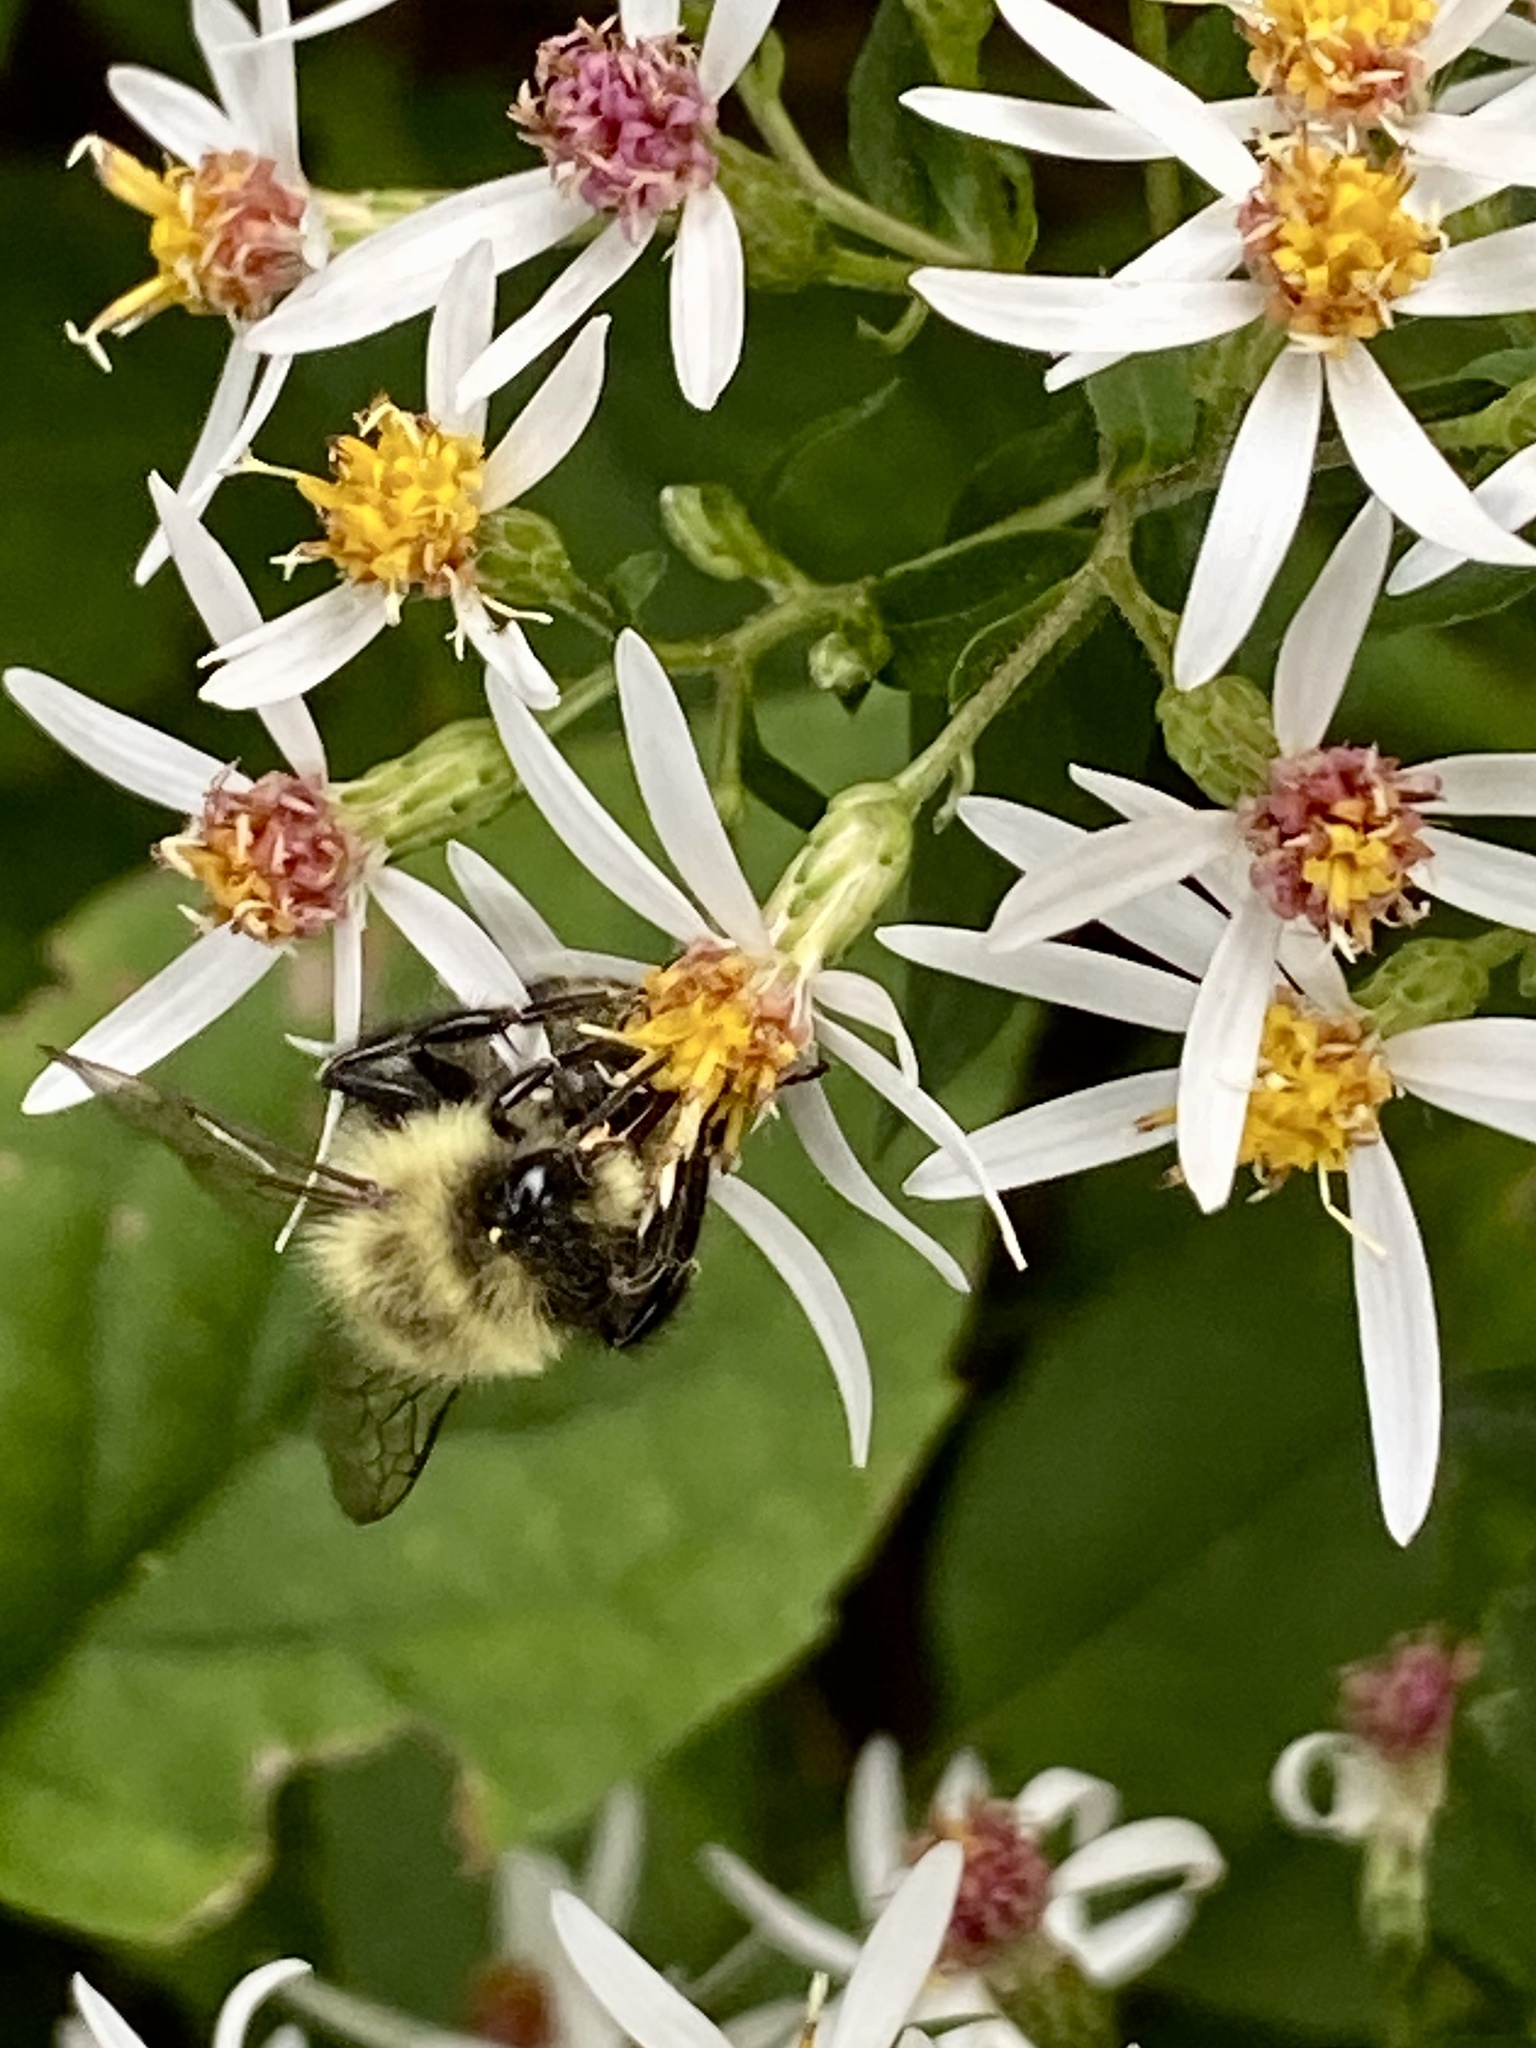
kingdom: Animalia
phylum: Arthropoda
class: Insecta
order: Hymenoptera
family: Apidae
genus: Bombus
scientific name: Bombus impatiens
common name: Common eastern bumble bee
